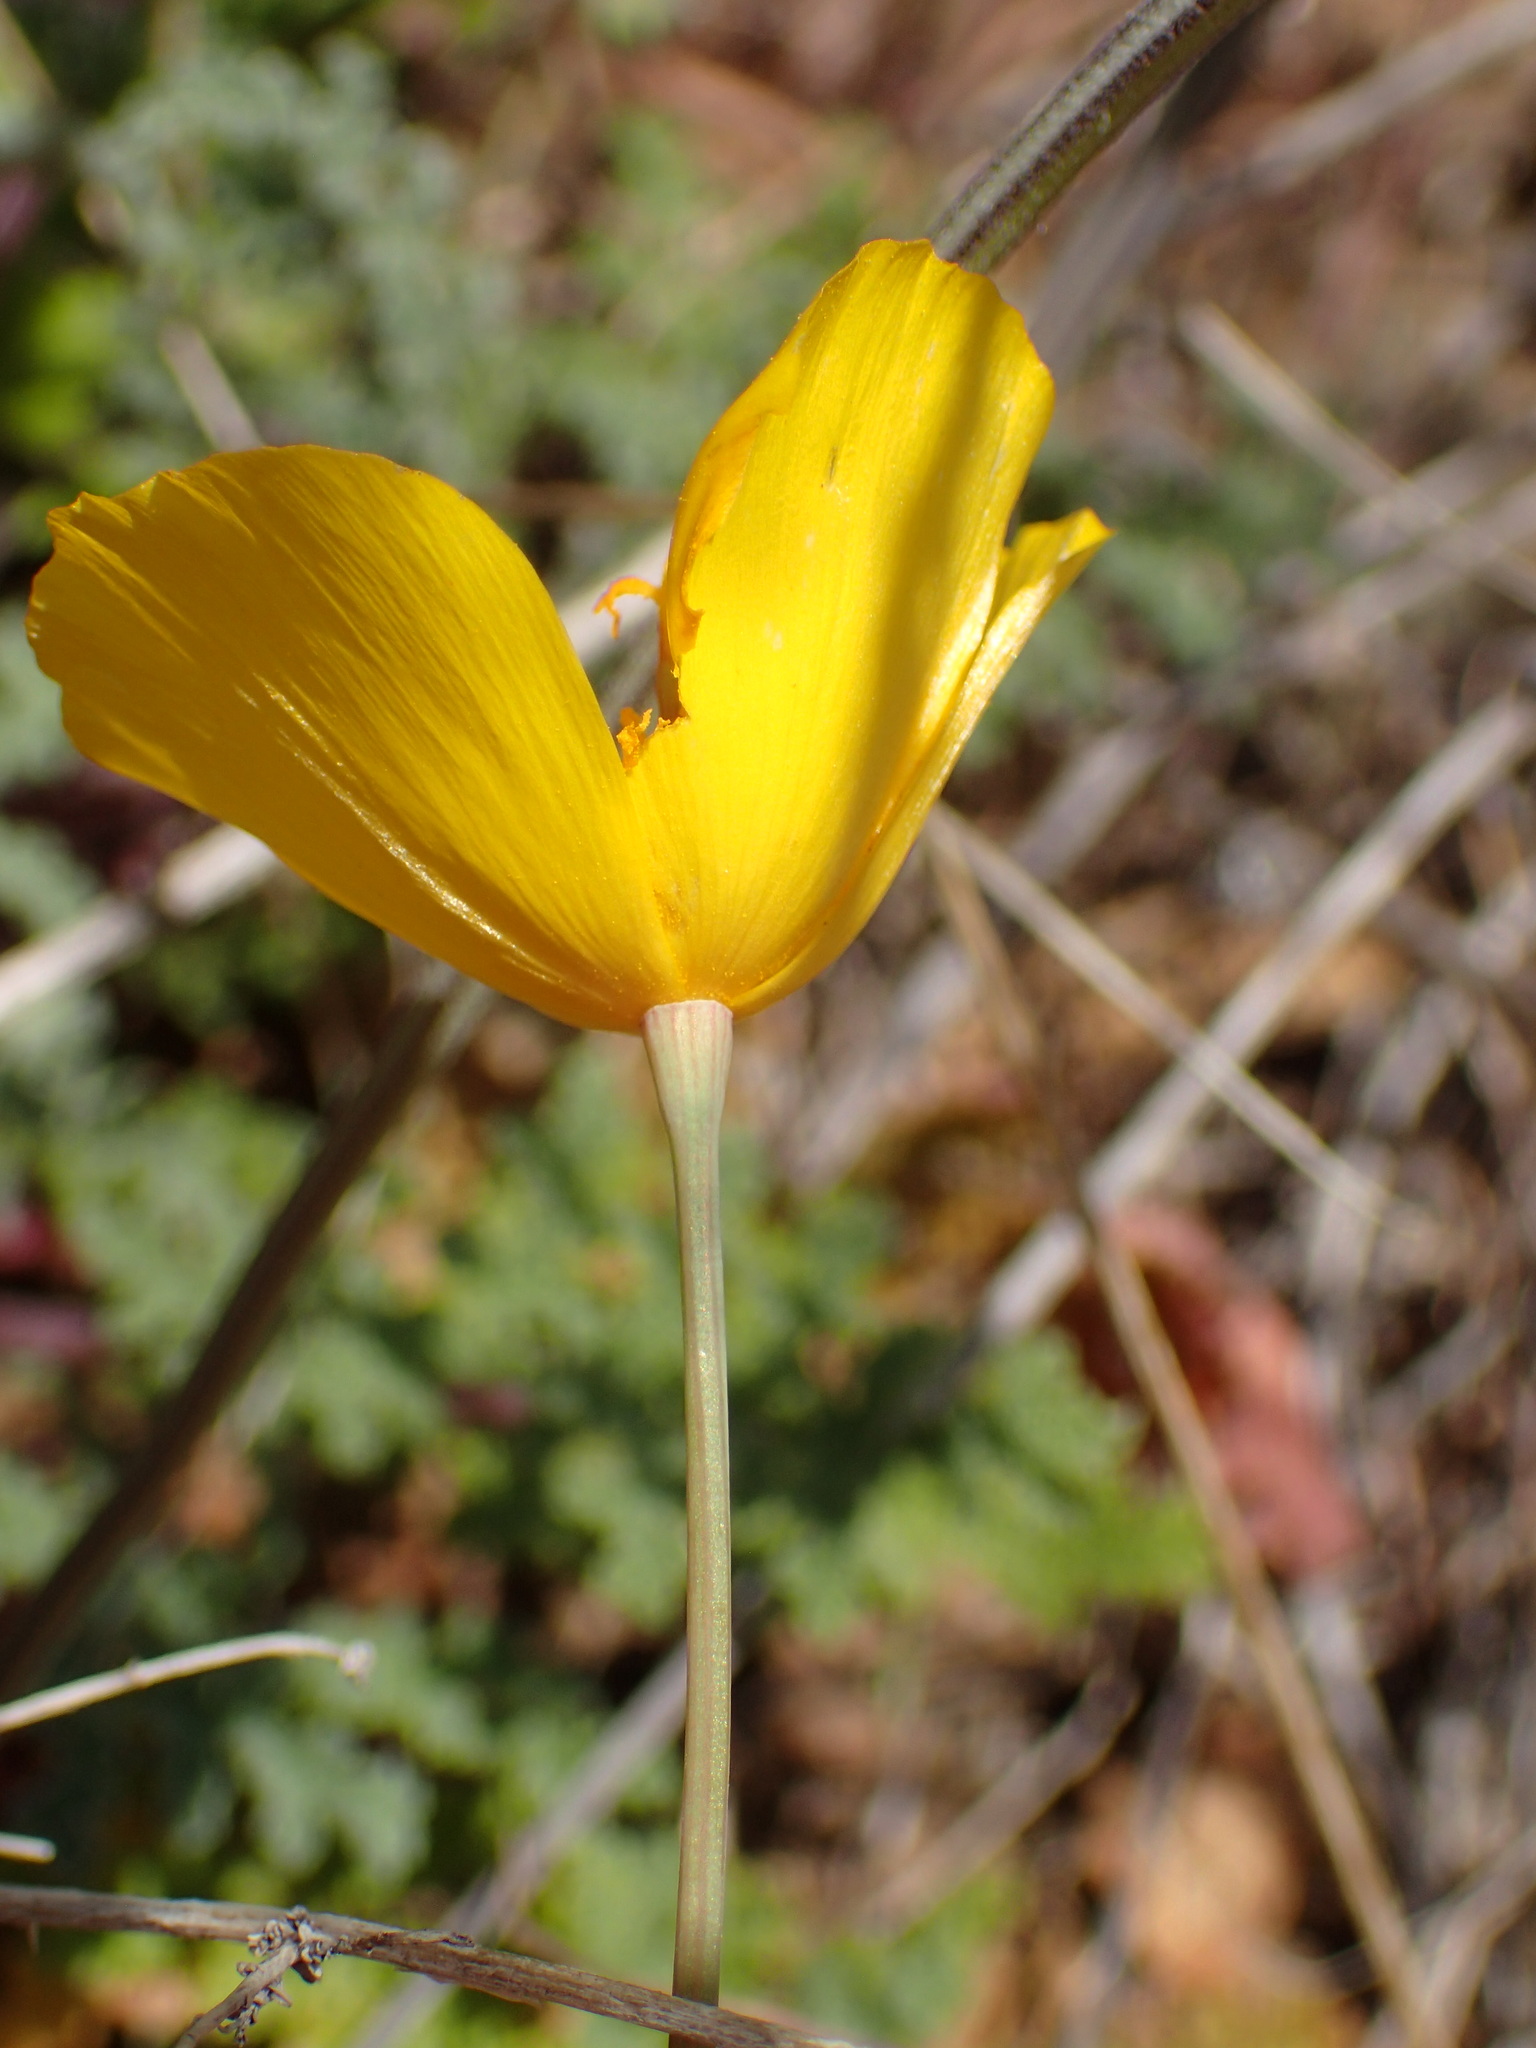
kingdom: Plantae
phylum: Tracheophyta
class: Magnoliopsida
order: Ranunculales
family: Papaveraceae
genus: Eschscholzia
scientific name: Eschscholzia caespitosa
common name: Tufted california-poppy
